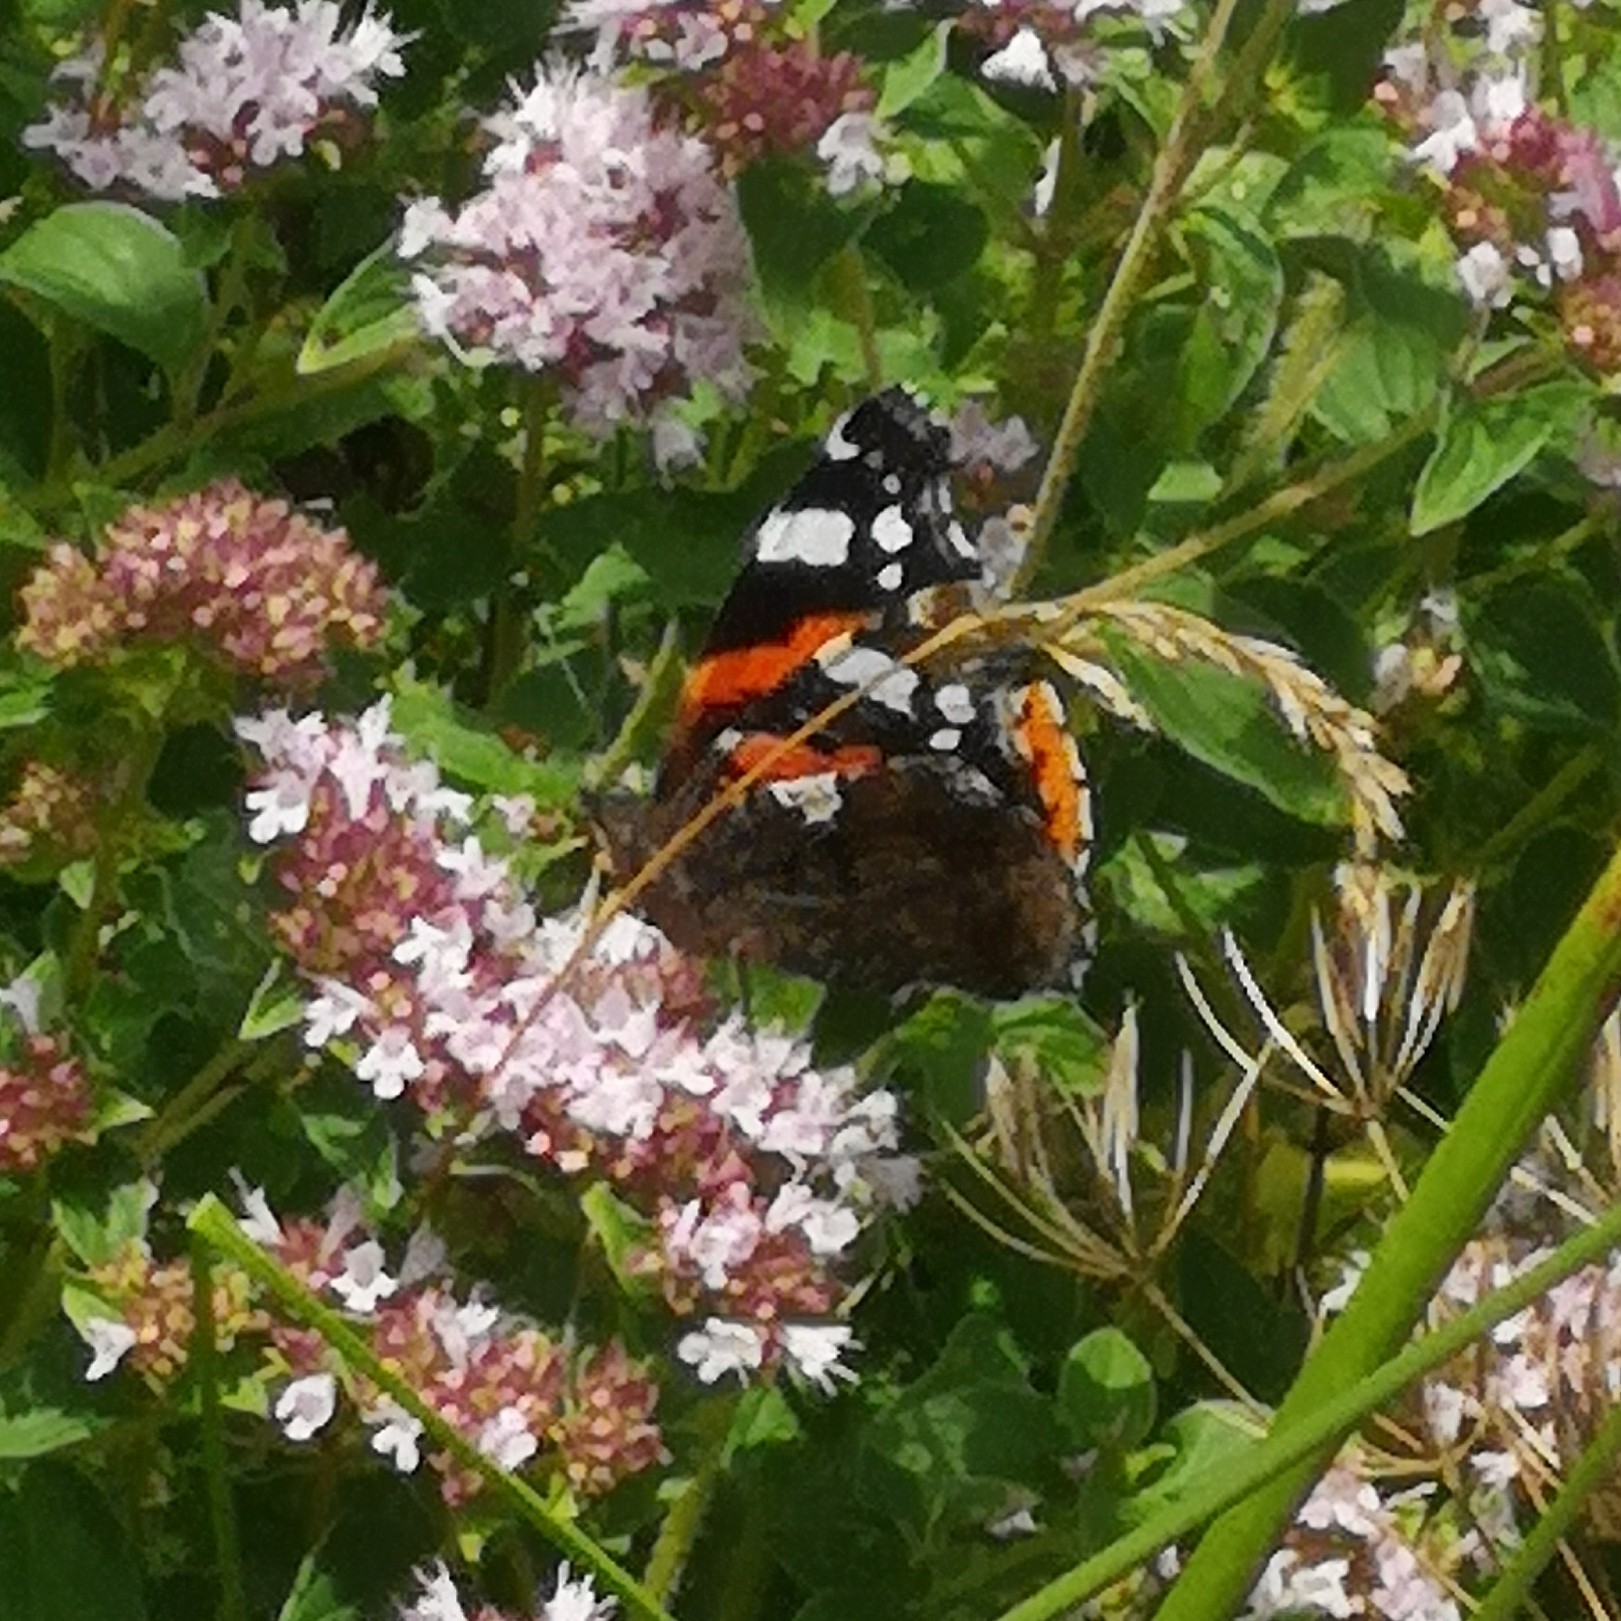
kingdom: Animalia
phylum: Arthropoda
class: Insecta
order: Lepidoptera
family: Nymphalidae
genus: Vanessa
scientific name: Vanessa atalanta
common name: Red admiral
